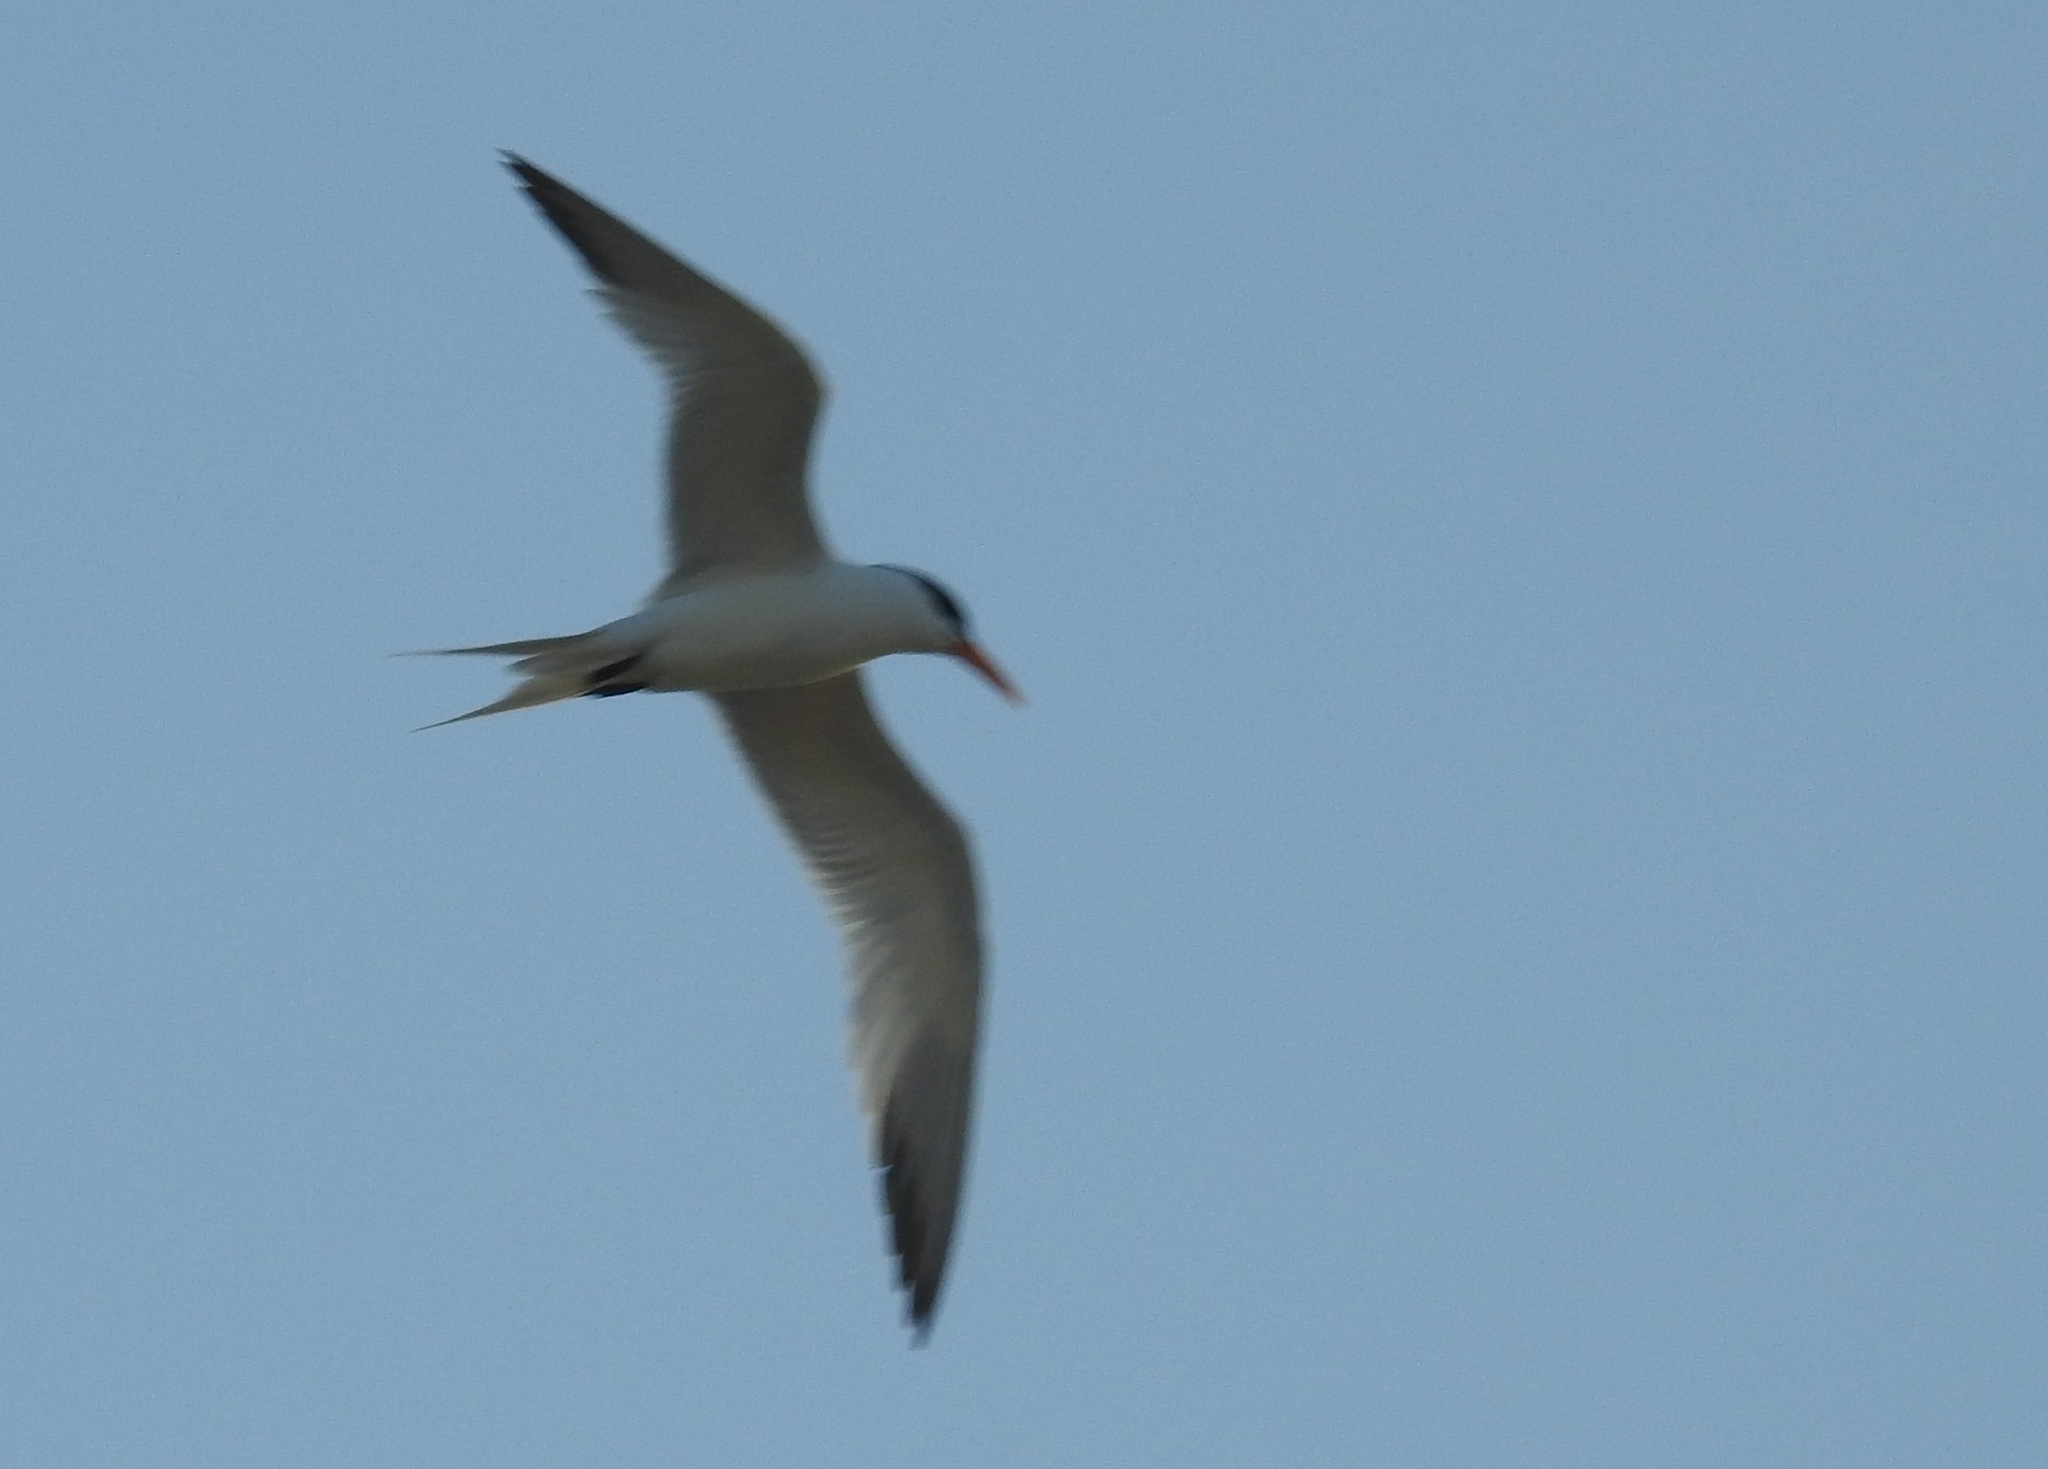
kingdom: Animalia
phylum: Chordata
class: Aves
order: Charadriiformes
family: Laridae
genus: Thalasseus
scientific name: Thalasseus bengalensis
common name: Lesser crested tern
